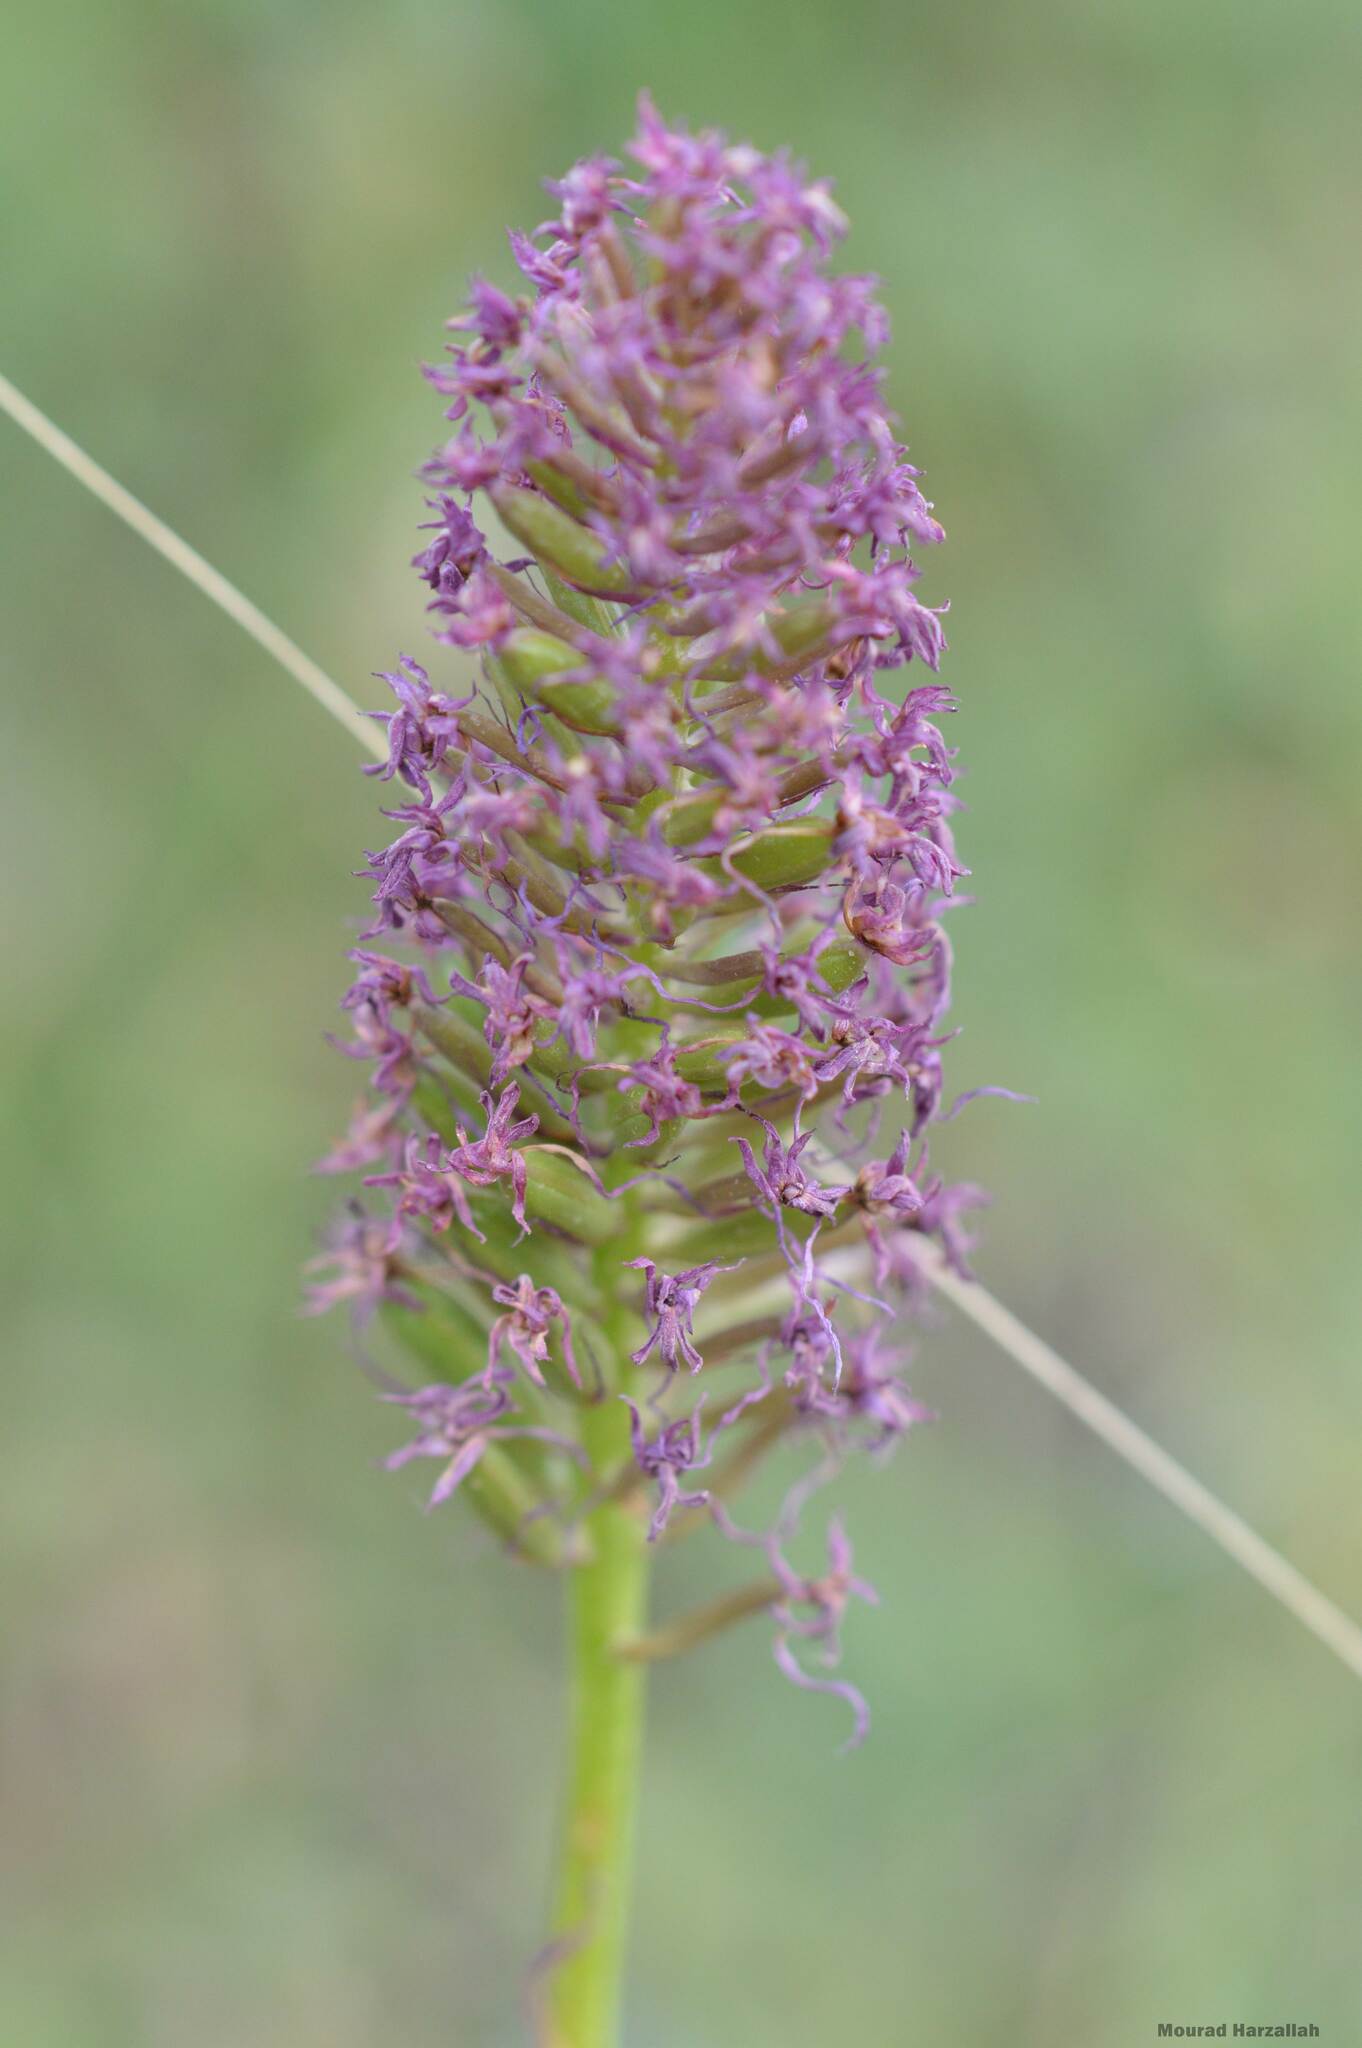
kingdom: Plantae
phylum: Tracheophyta
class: Liliopsida
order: Asparagales
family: Orchidaceae
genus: Anacamptis
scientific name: Anacamptis pyramidalis
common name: Pyramidal orchid
